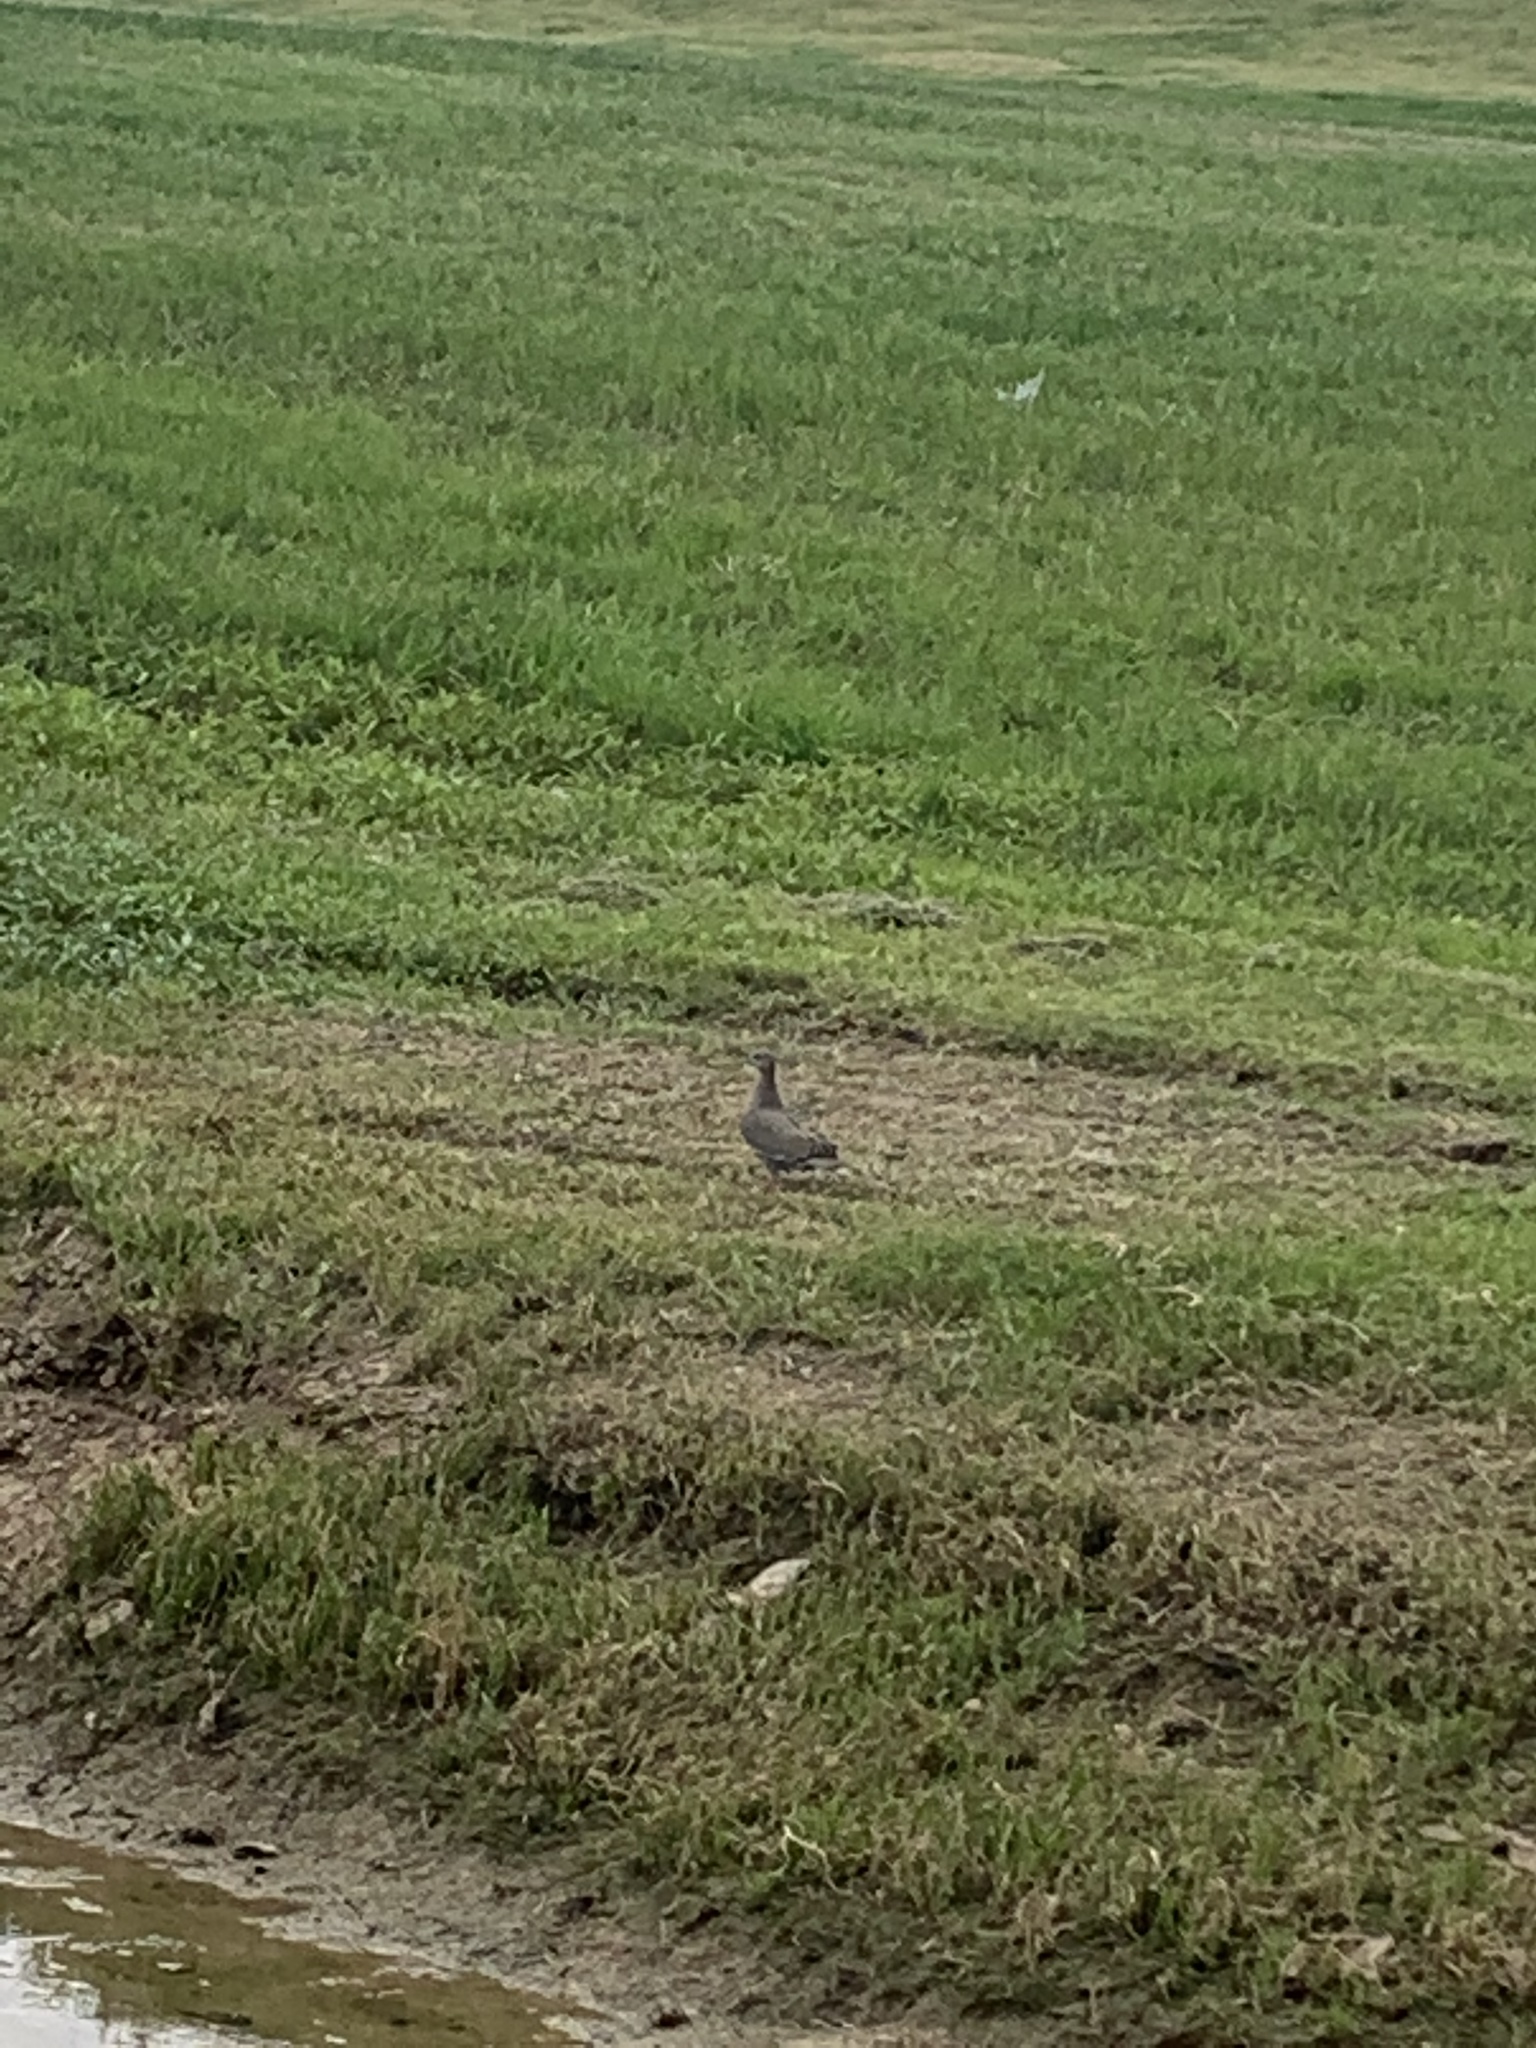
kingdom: Animalia
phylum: Chordata
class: Aves
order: Columbiformes
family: Columbidae
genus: Zenaida
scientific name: Zenaida asiatica
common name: White-winged dove
